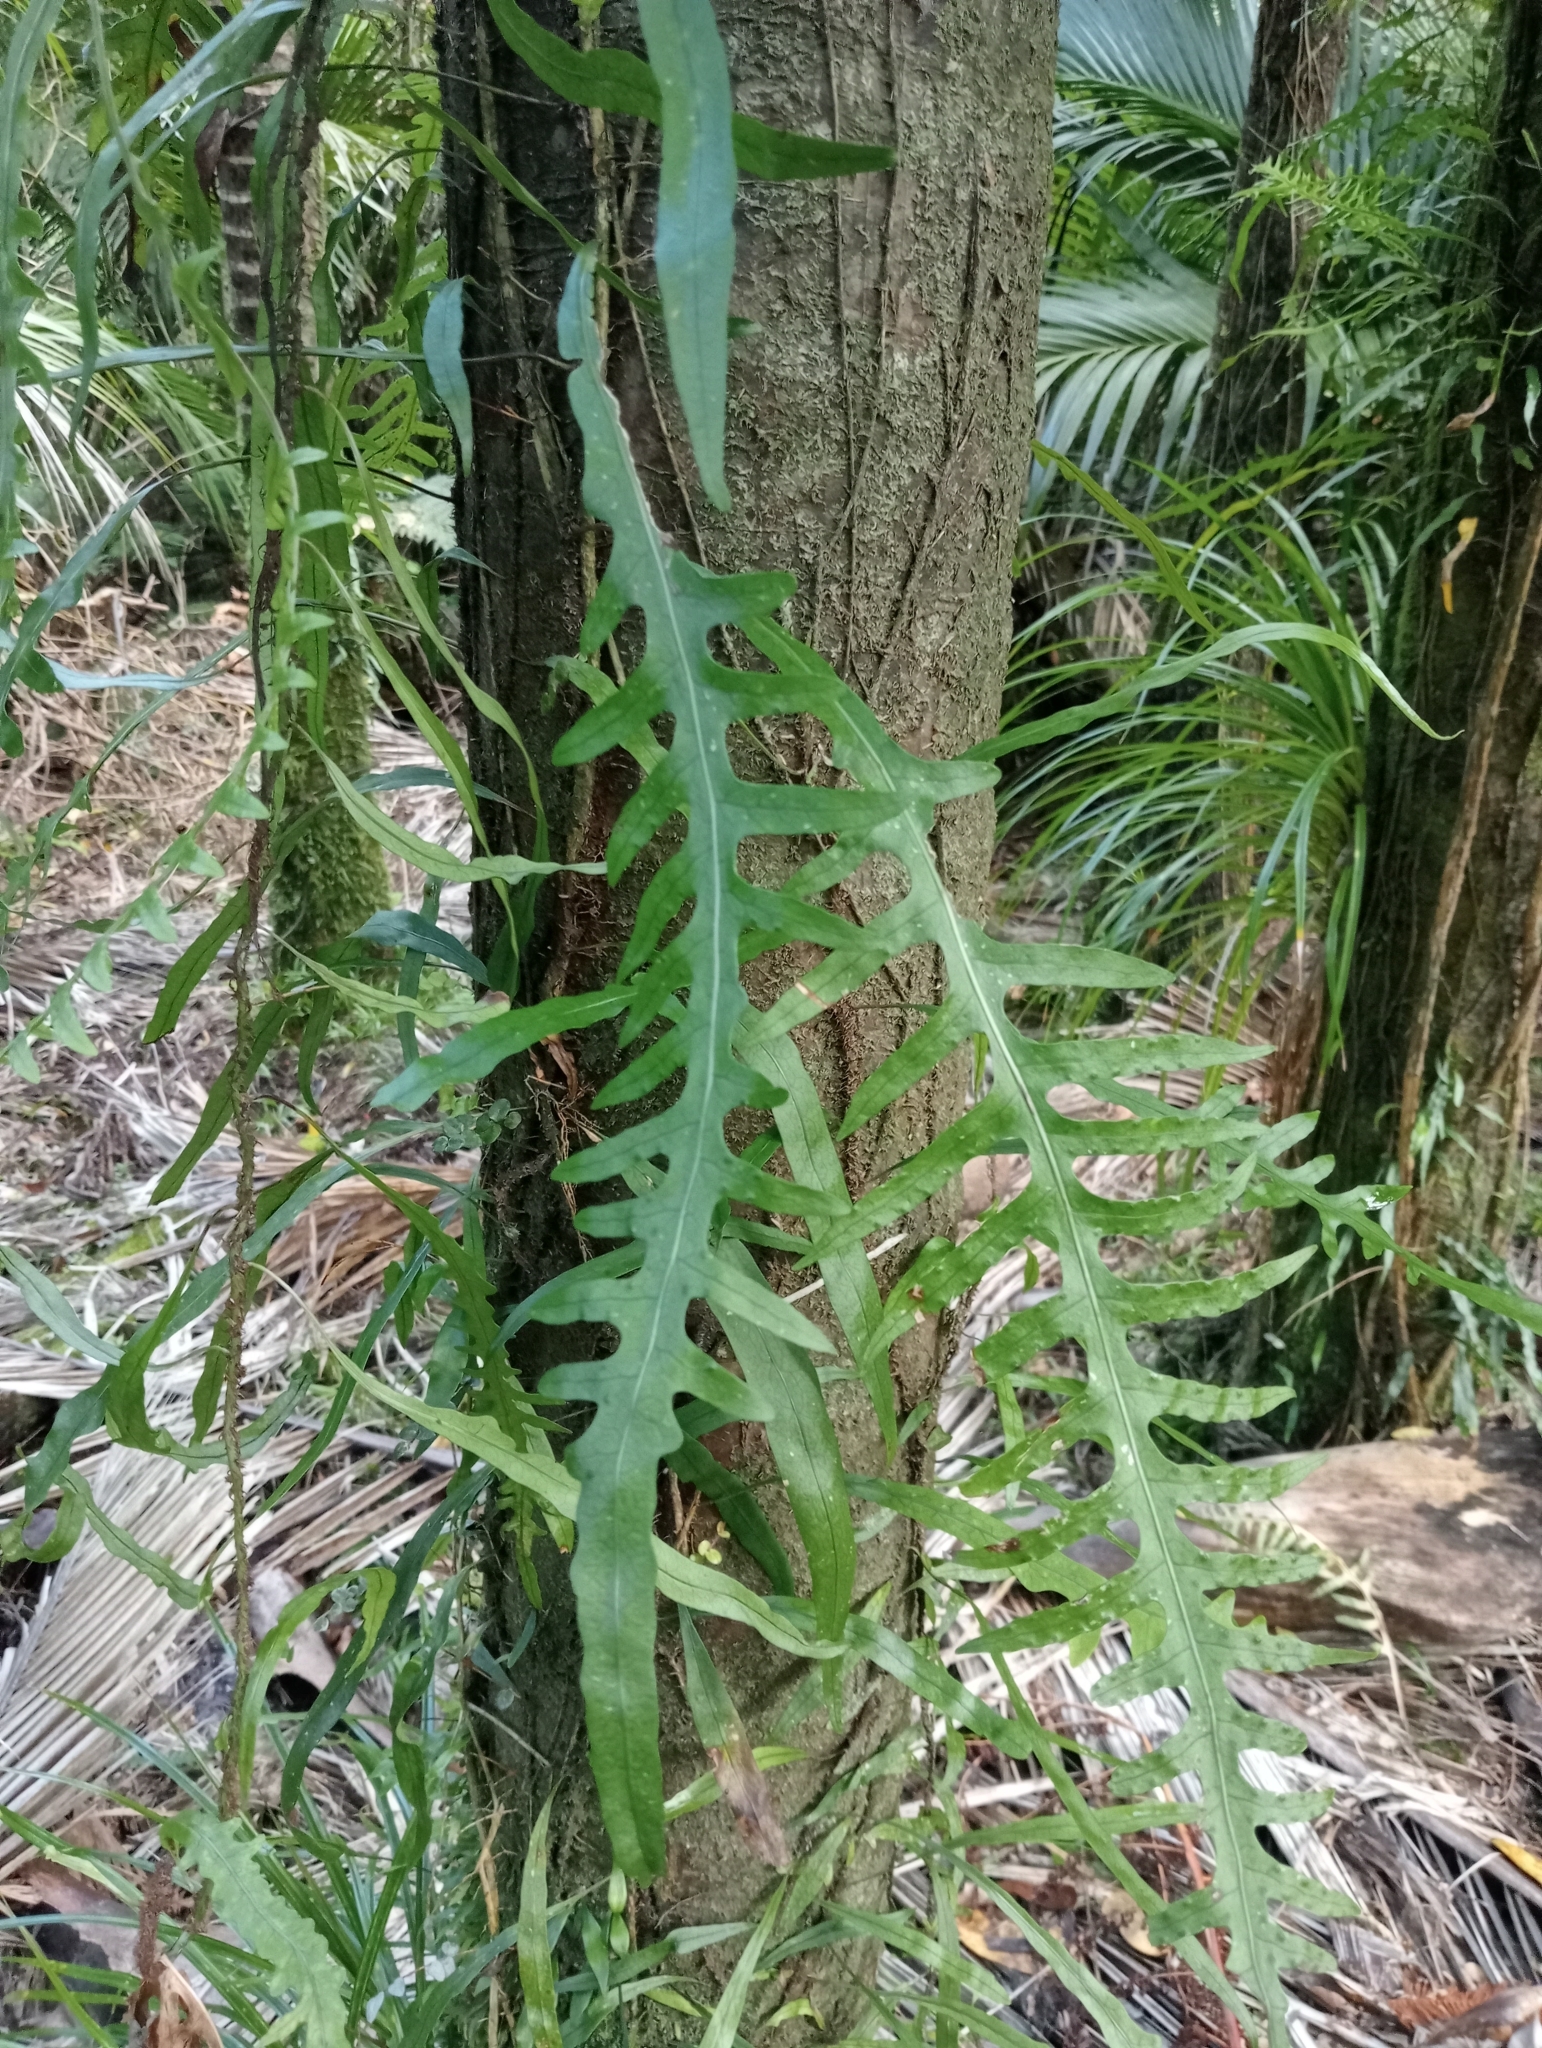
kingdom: Plantae
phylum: Tracheophyta
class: Polypodiopsida
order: Polypodiales
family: Polypodiaceae
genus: Lecanopteris
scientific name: Lecanopteris scandens
